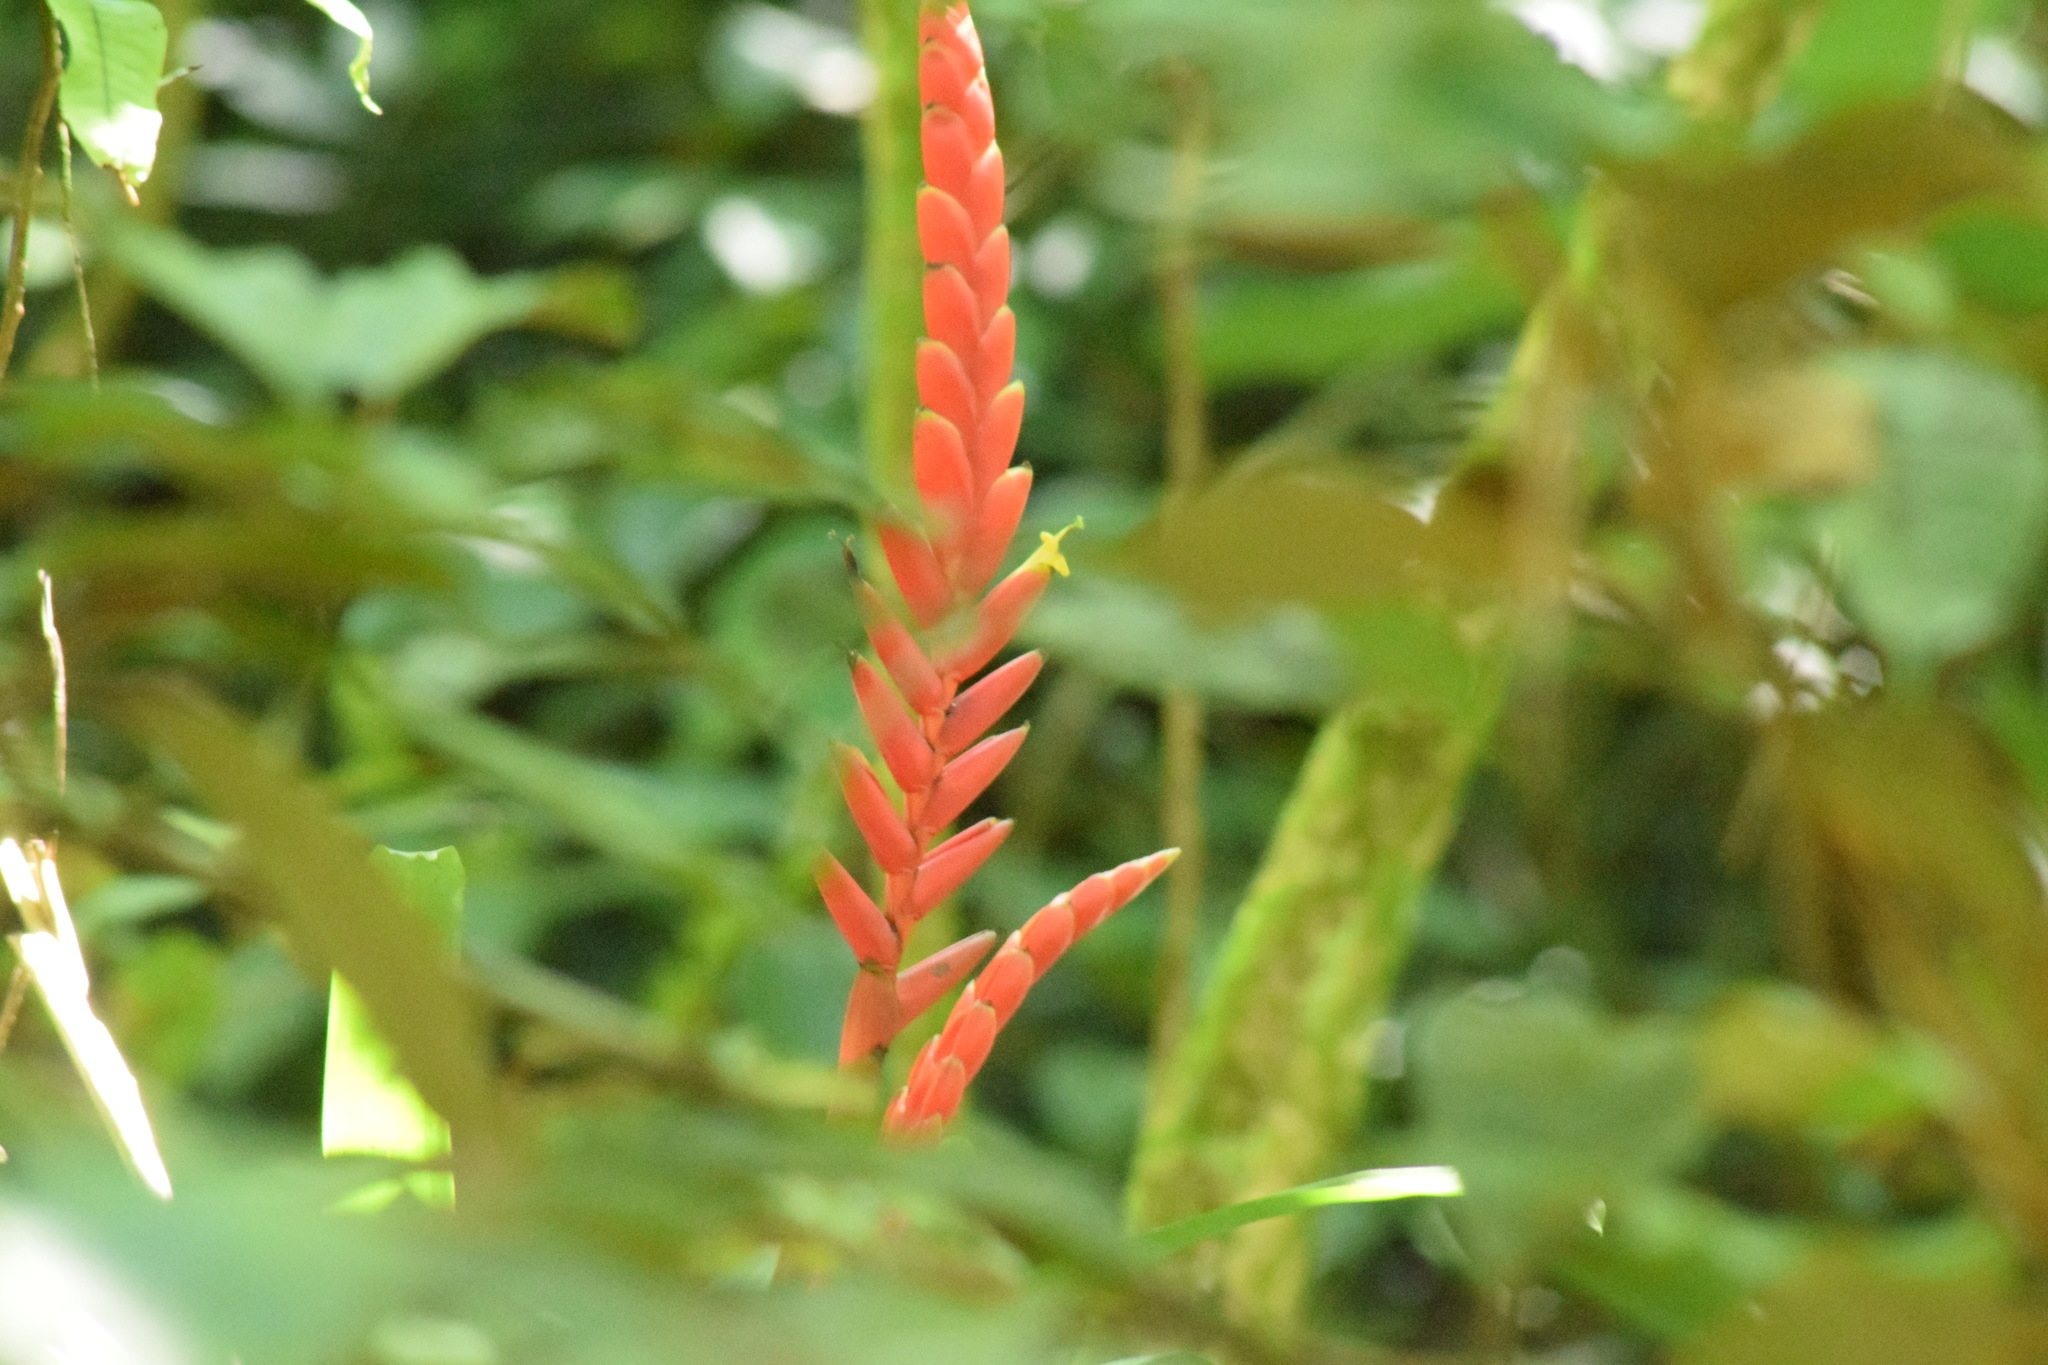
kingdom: Plantae
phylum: Tracheophyta
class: Liliopsida
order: Poales
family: Bromeliaceae
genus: Vriesea
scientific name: Vriesea ensiformis
